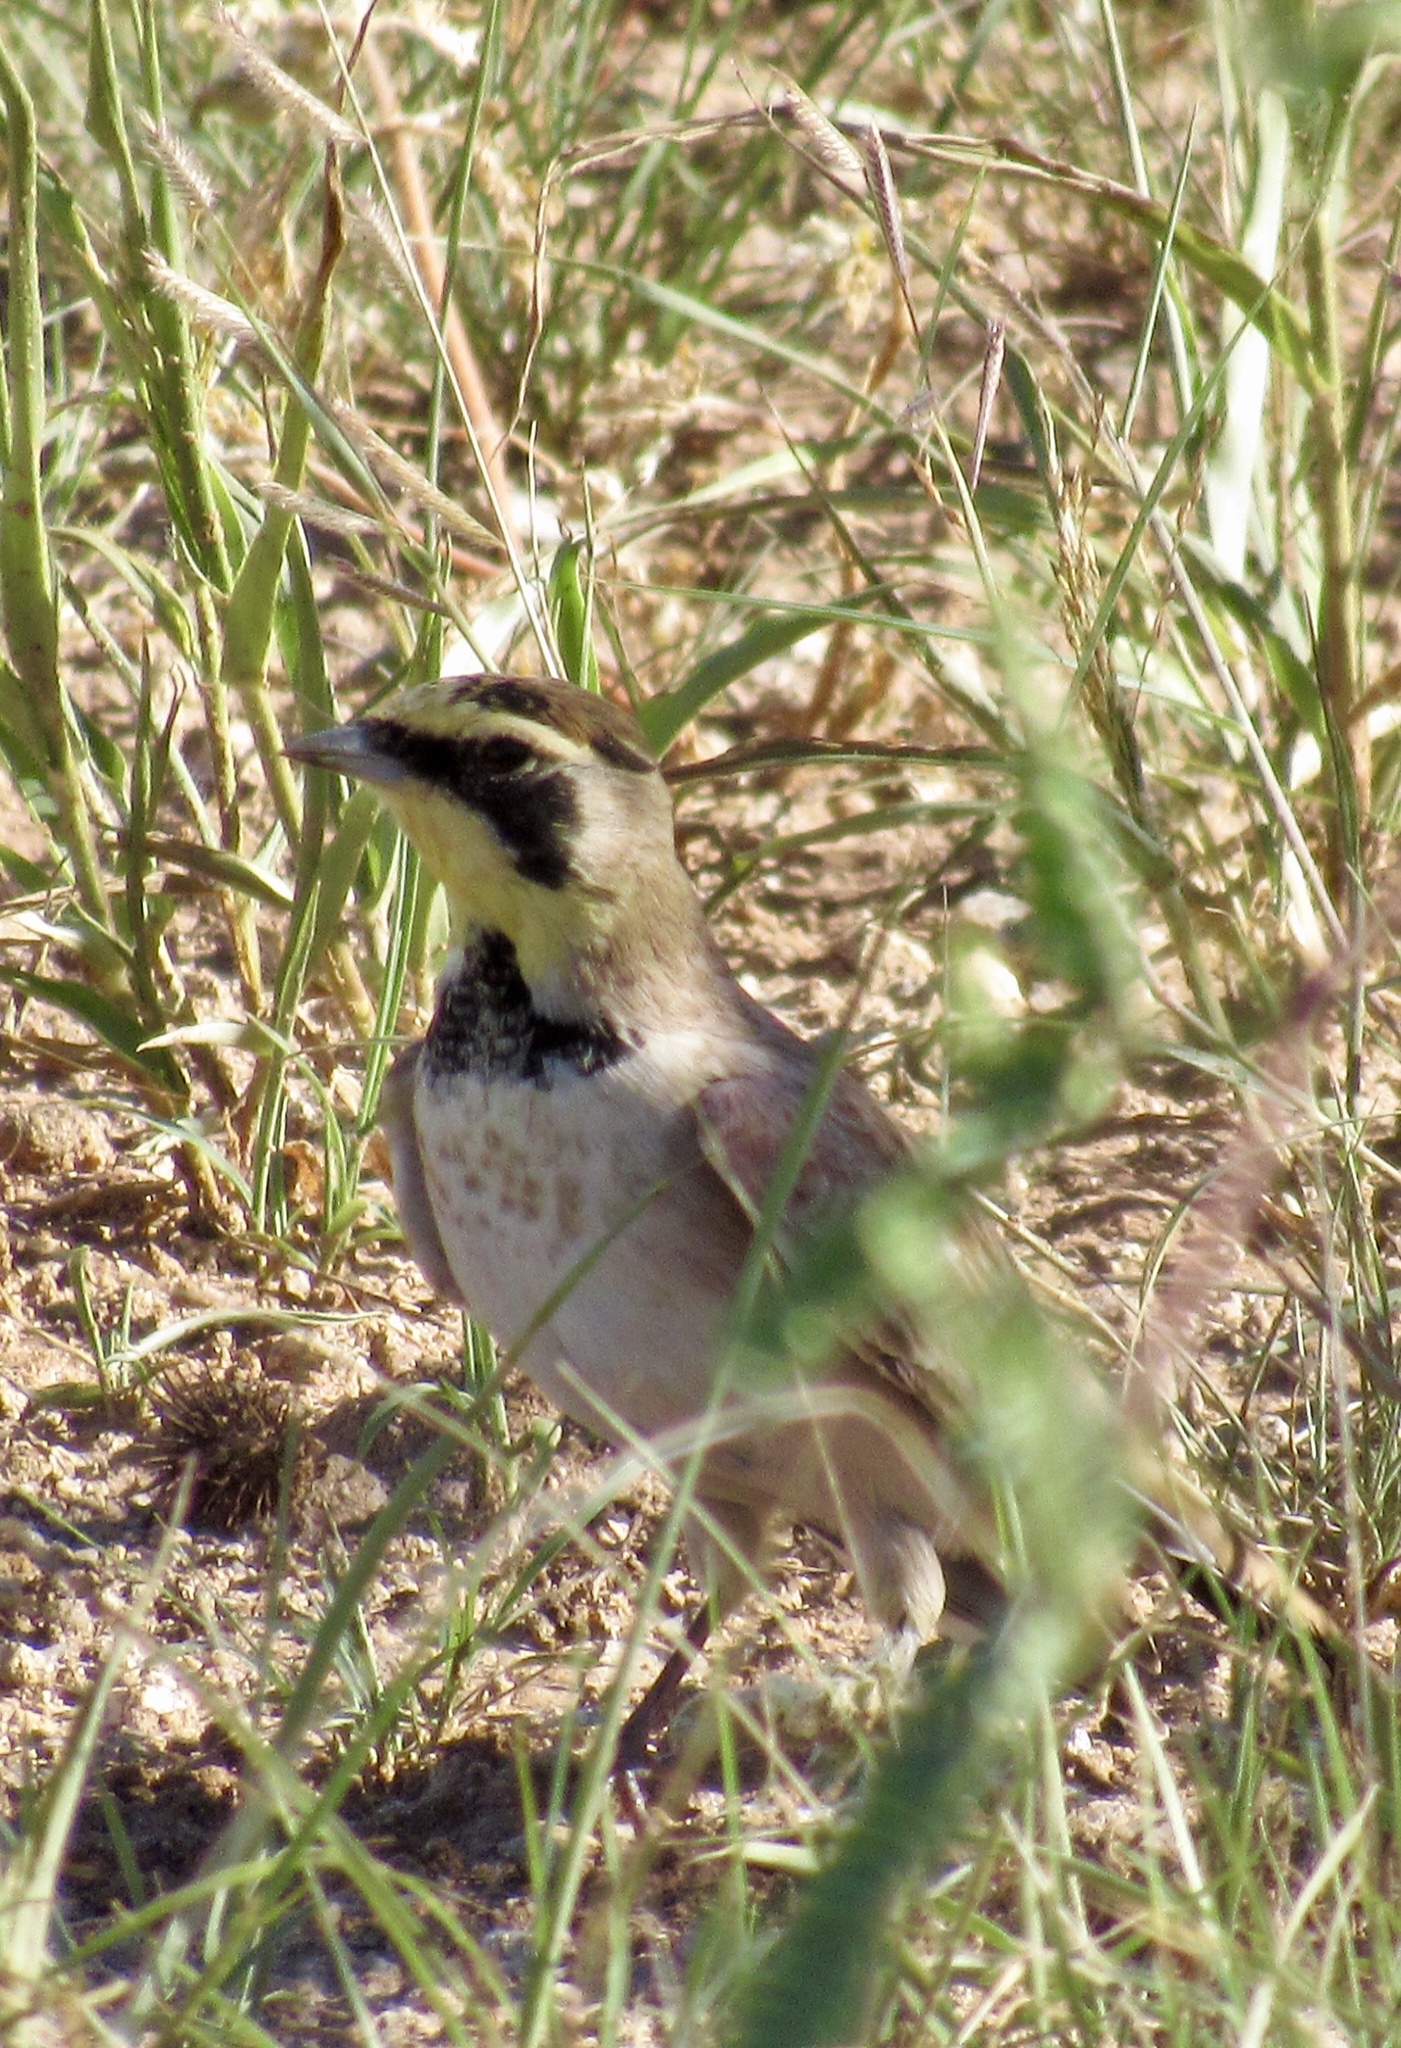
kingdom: Animalia
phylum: Chordata
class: Aves
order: Passeriformes
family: Alaudidae
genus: Eremophila
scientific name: Eremophila alpestris
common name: Horned lark
